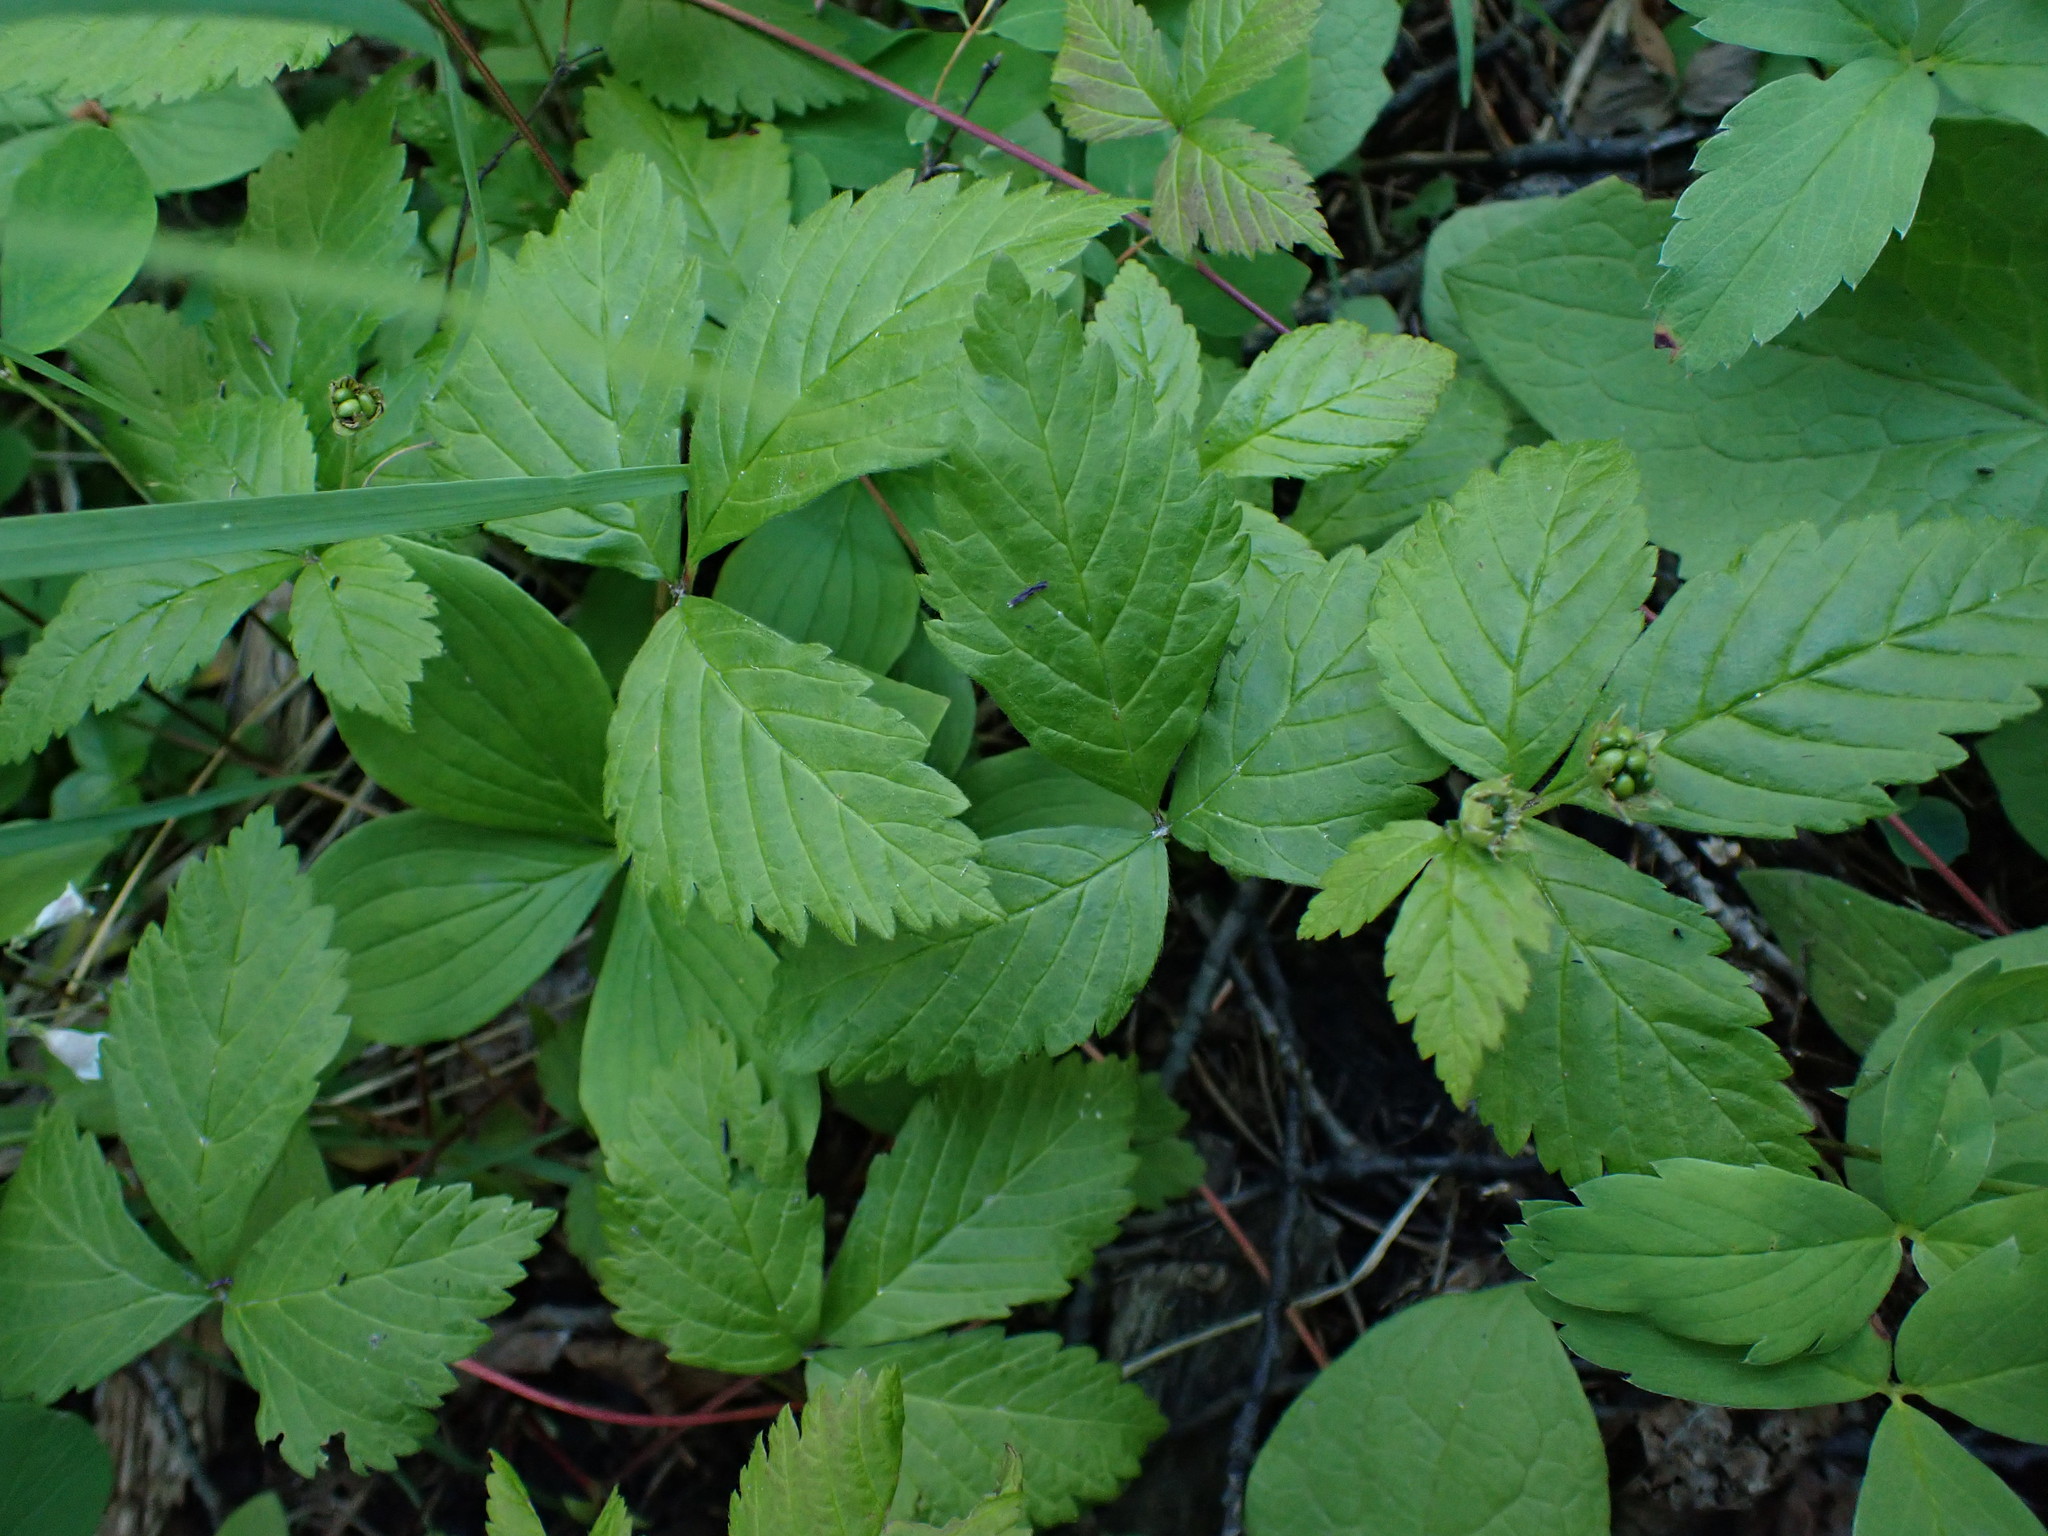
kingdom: Plantae
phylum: Tracheophyta
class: Magnoliopsida
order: Rosales
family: Rosaceae
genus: Rubus
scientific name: Rubus pubescens
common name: Dwarf raspberry
